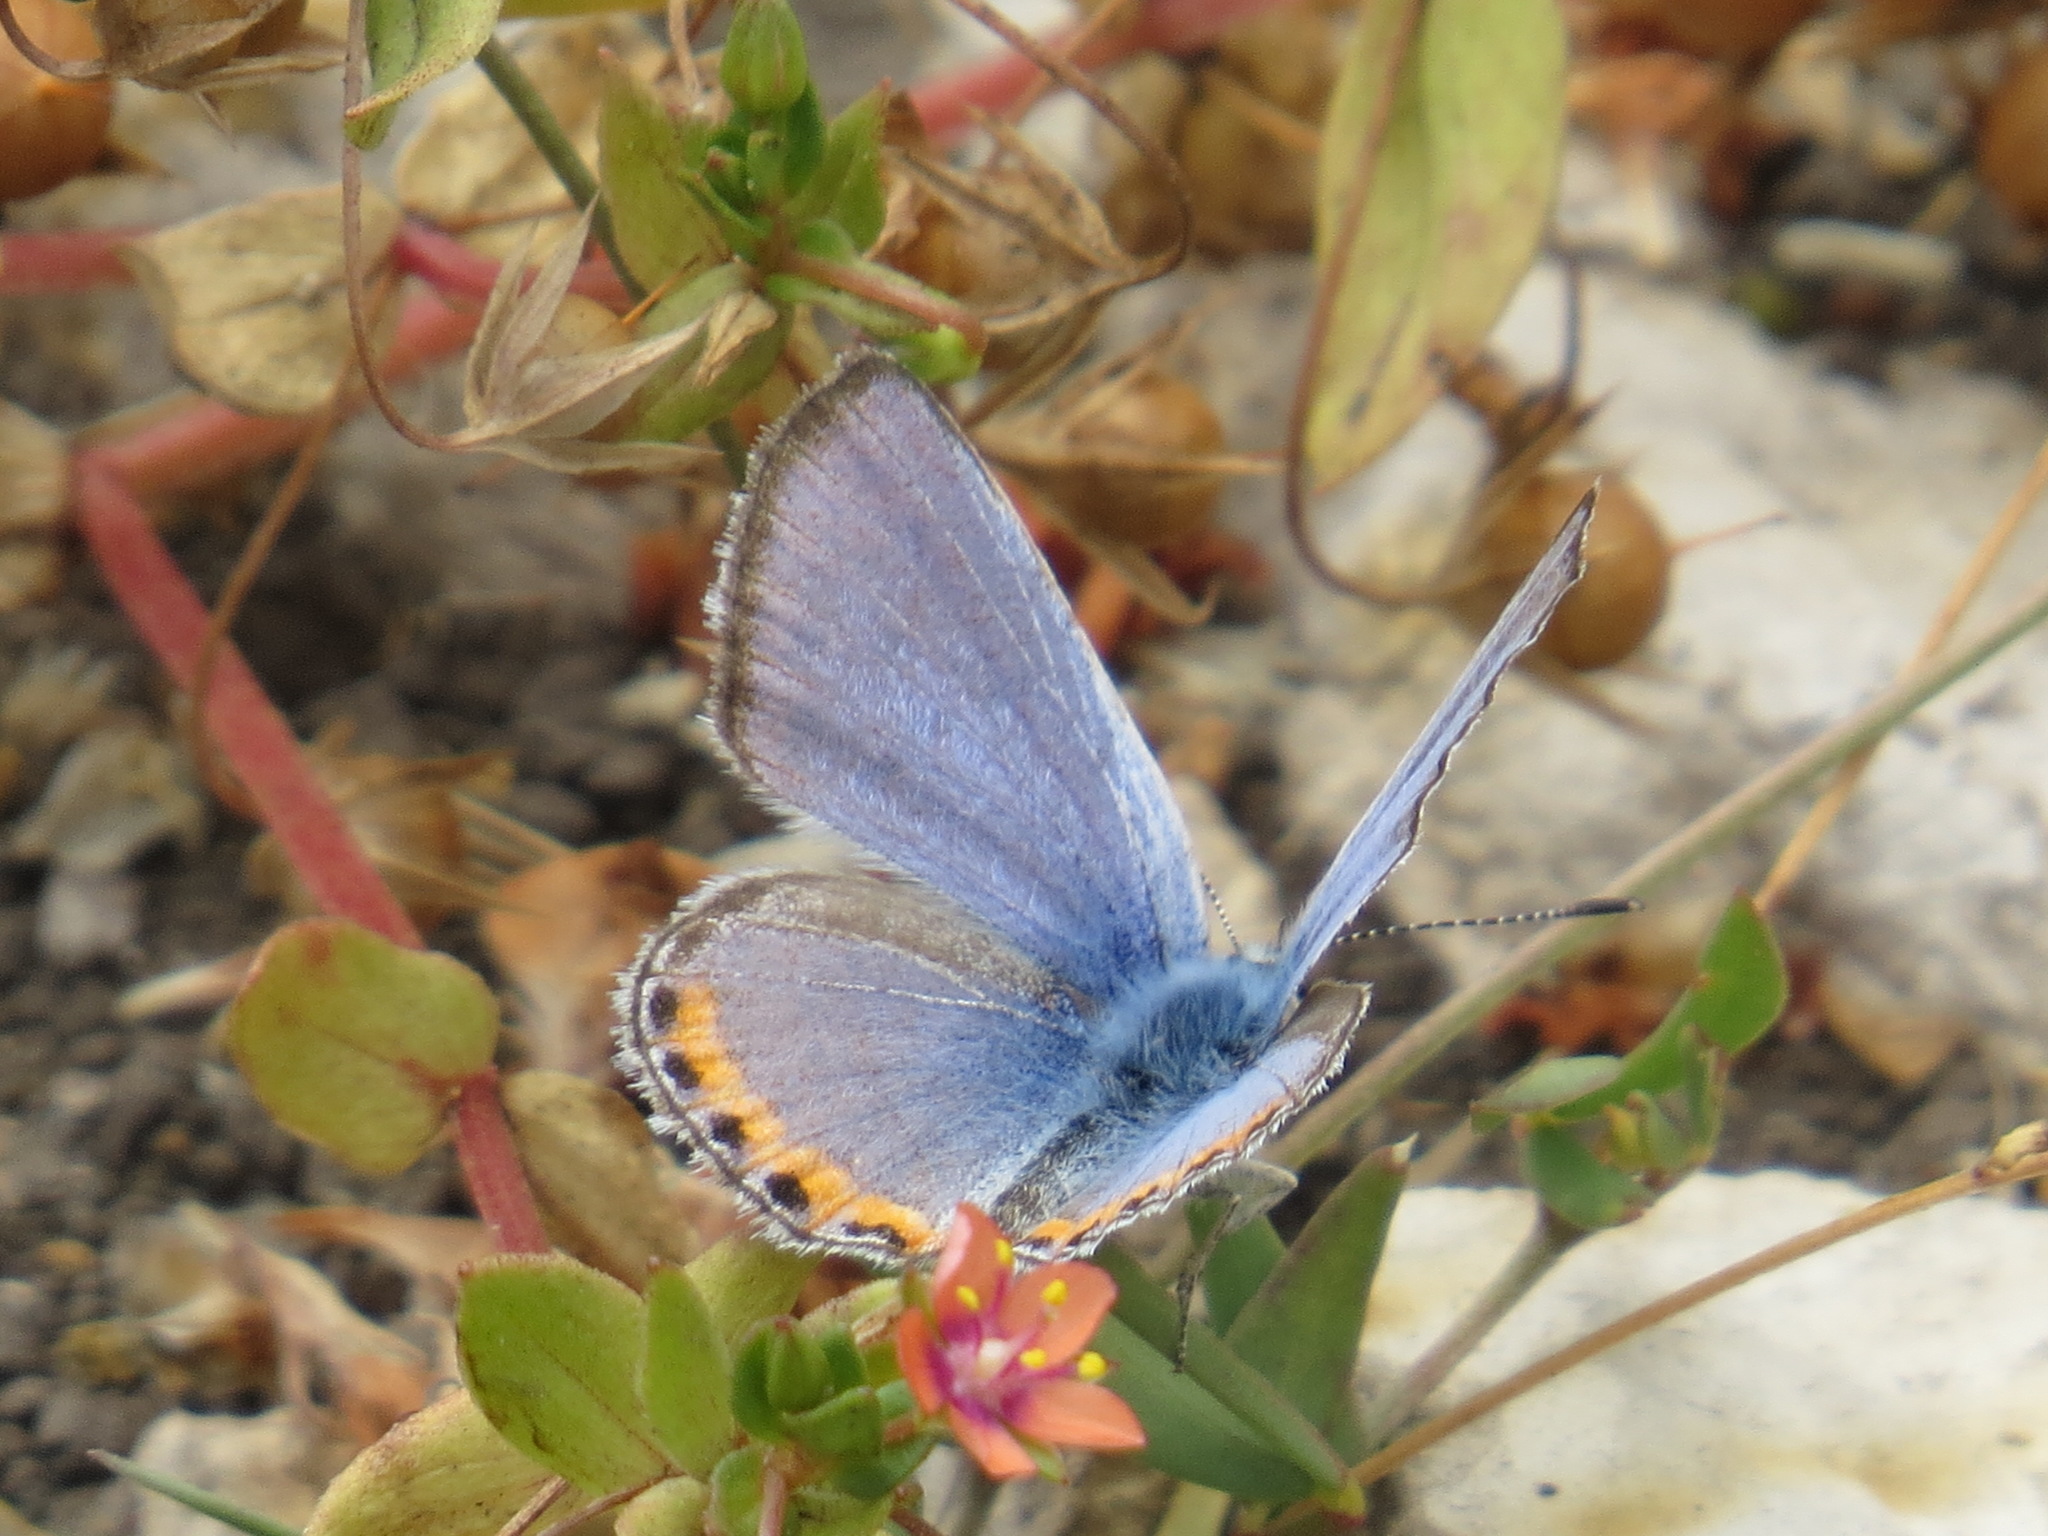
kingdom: Animalia
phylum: Arthropoda
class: Insecta
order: Lepidoptera
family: Lycaenidae
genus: Icaricia
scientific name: Icaricia acmon
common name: Acmon blue
